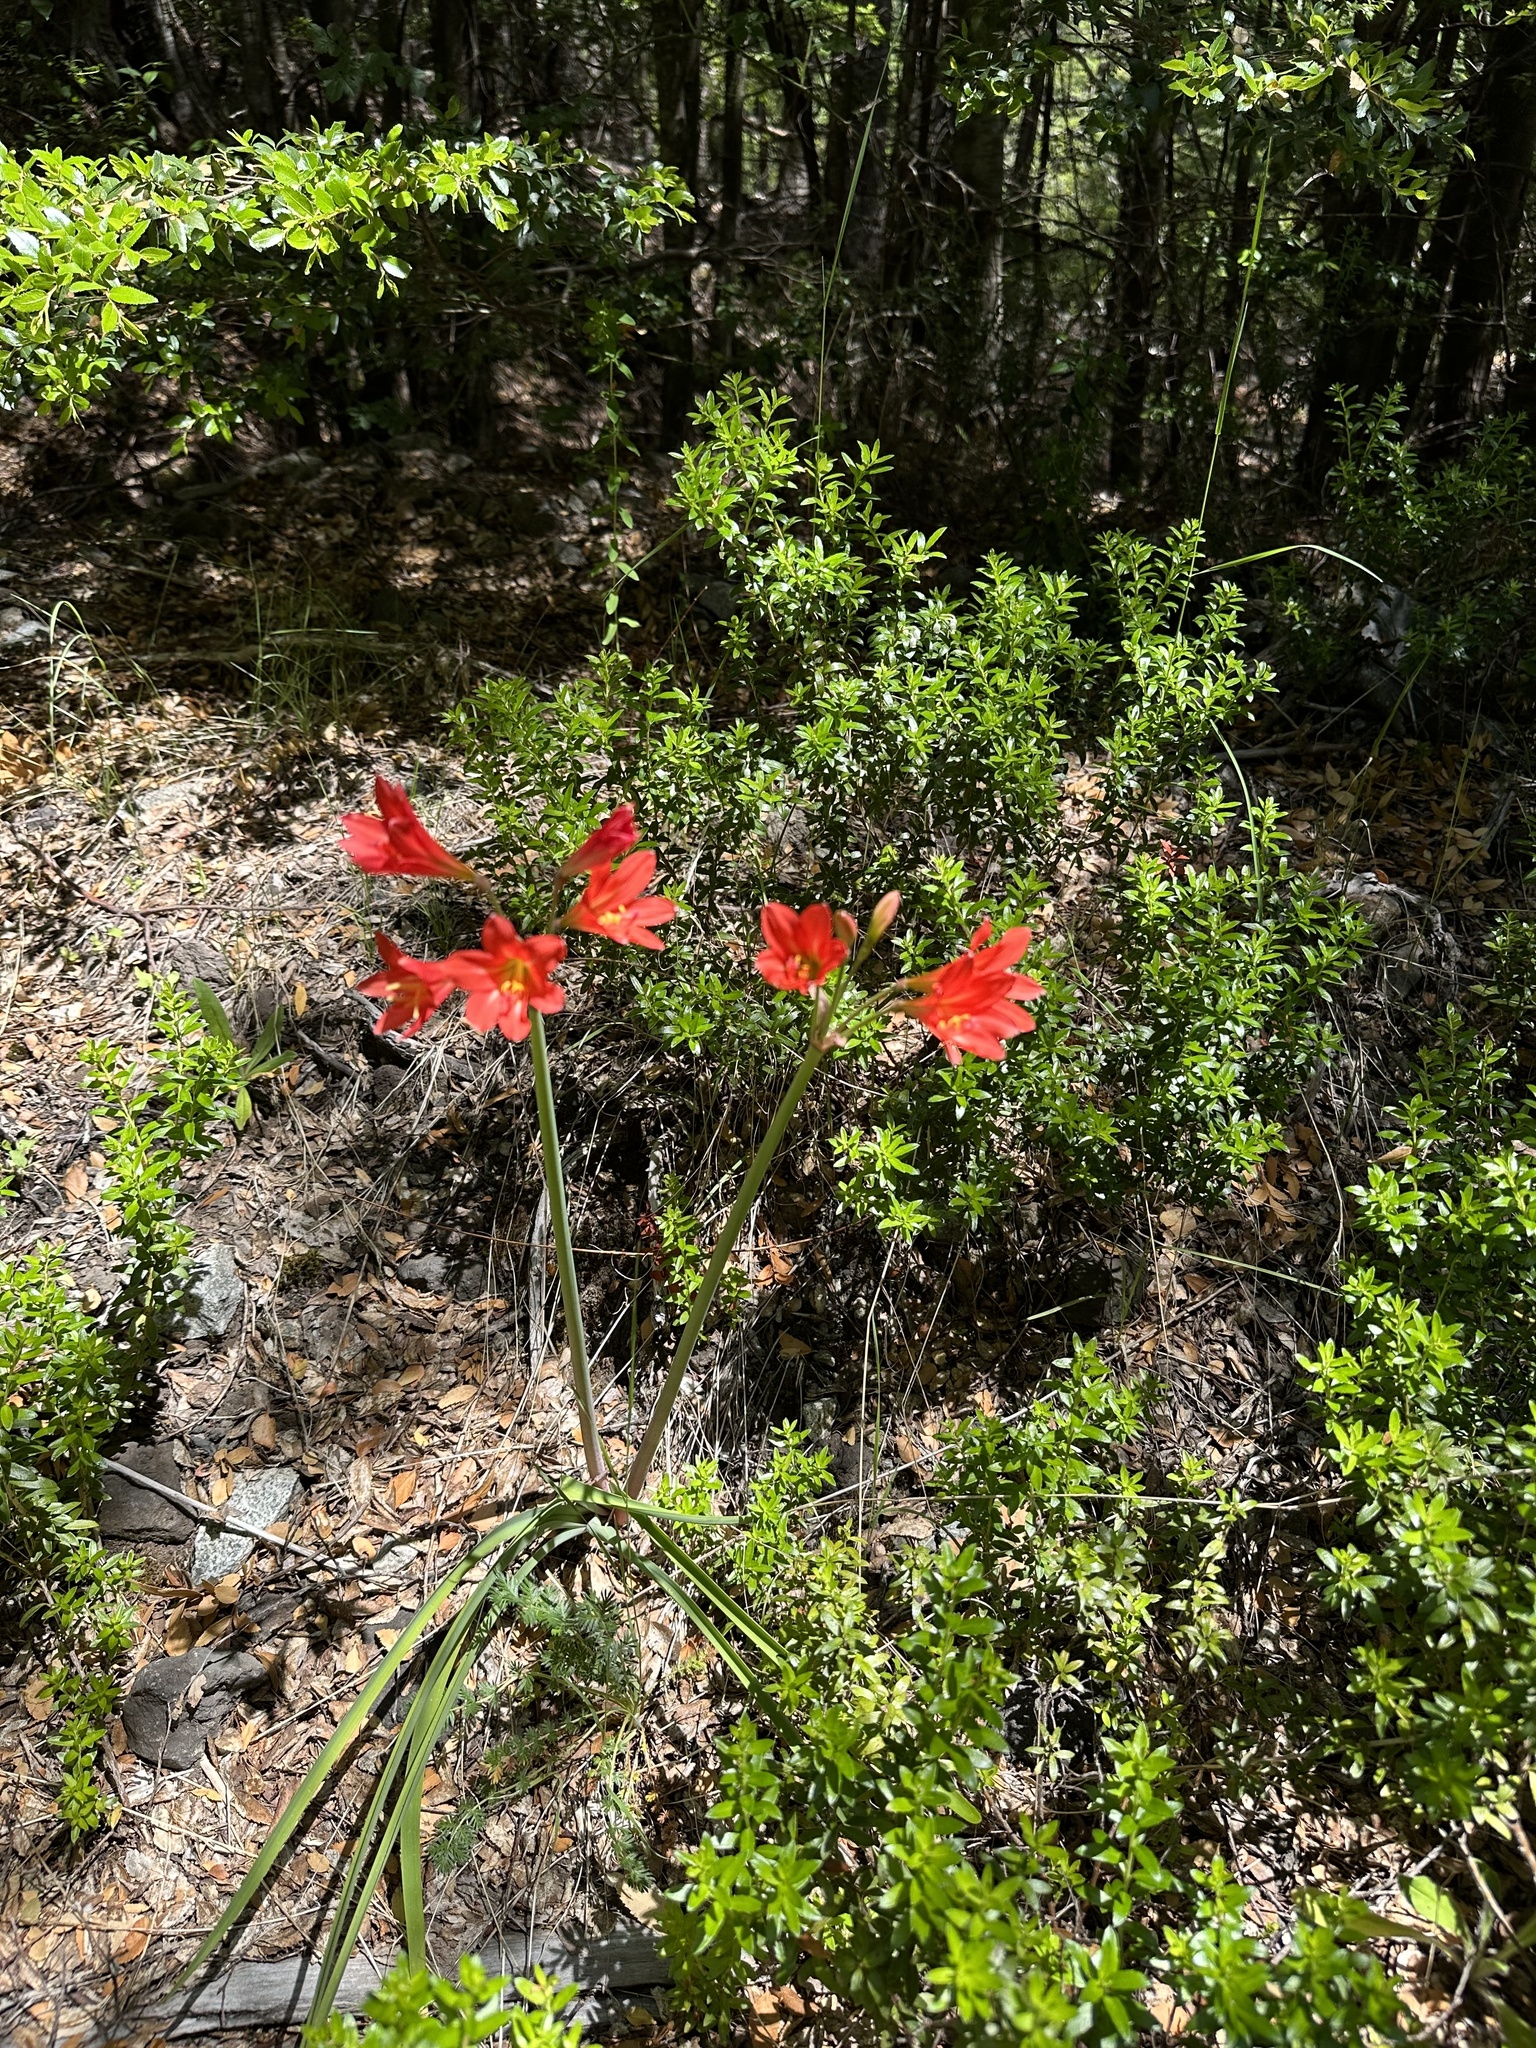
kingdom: Plantae
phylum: Tracheophyta
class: Liliopsida
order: Asparagales
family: Amaryllidaceae
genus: Zephyranthes
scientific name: Zephyranthes splendens
